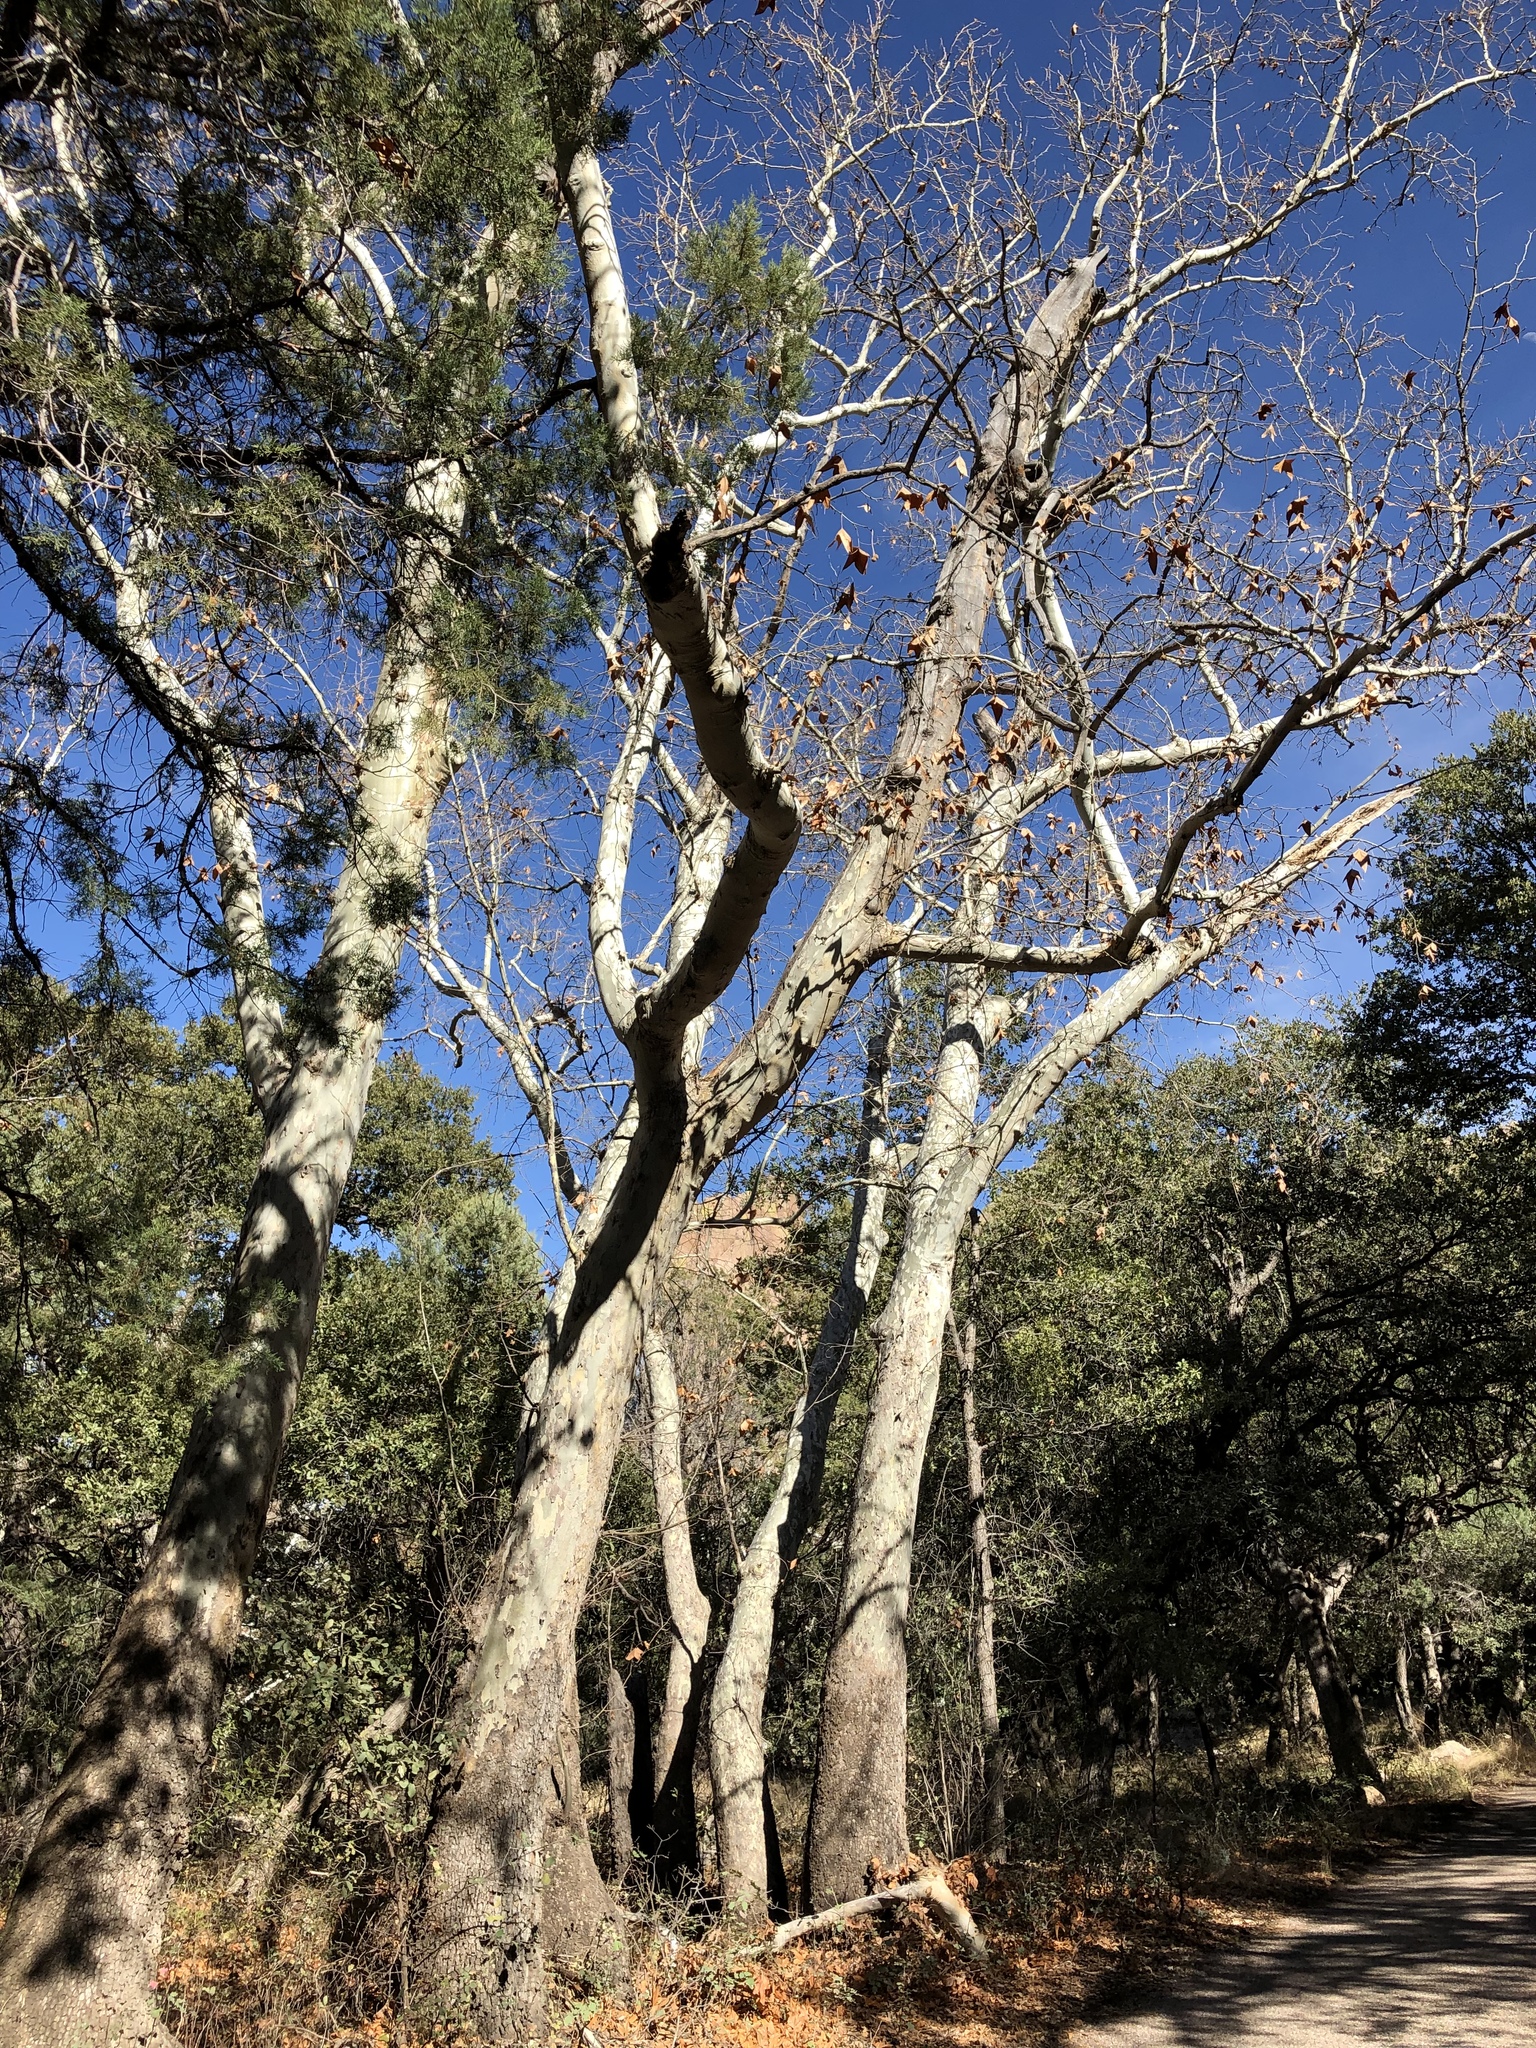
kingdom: Plantae
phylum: Tracheophyta
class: Magnoliopsida
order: Proteales
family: Platanaceae
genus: Platanus
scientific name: Platanus wrightii
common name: Arizona sycamore
